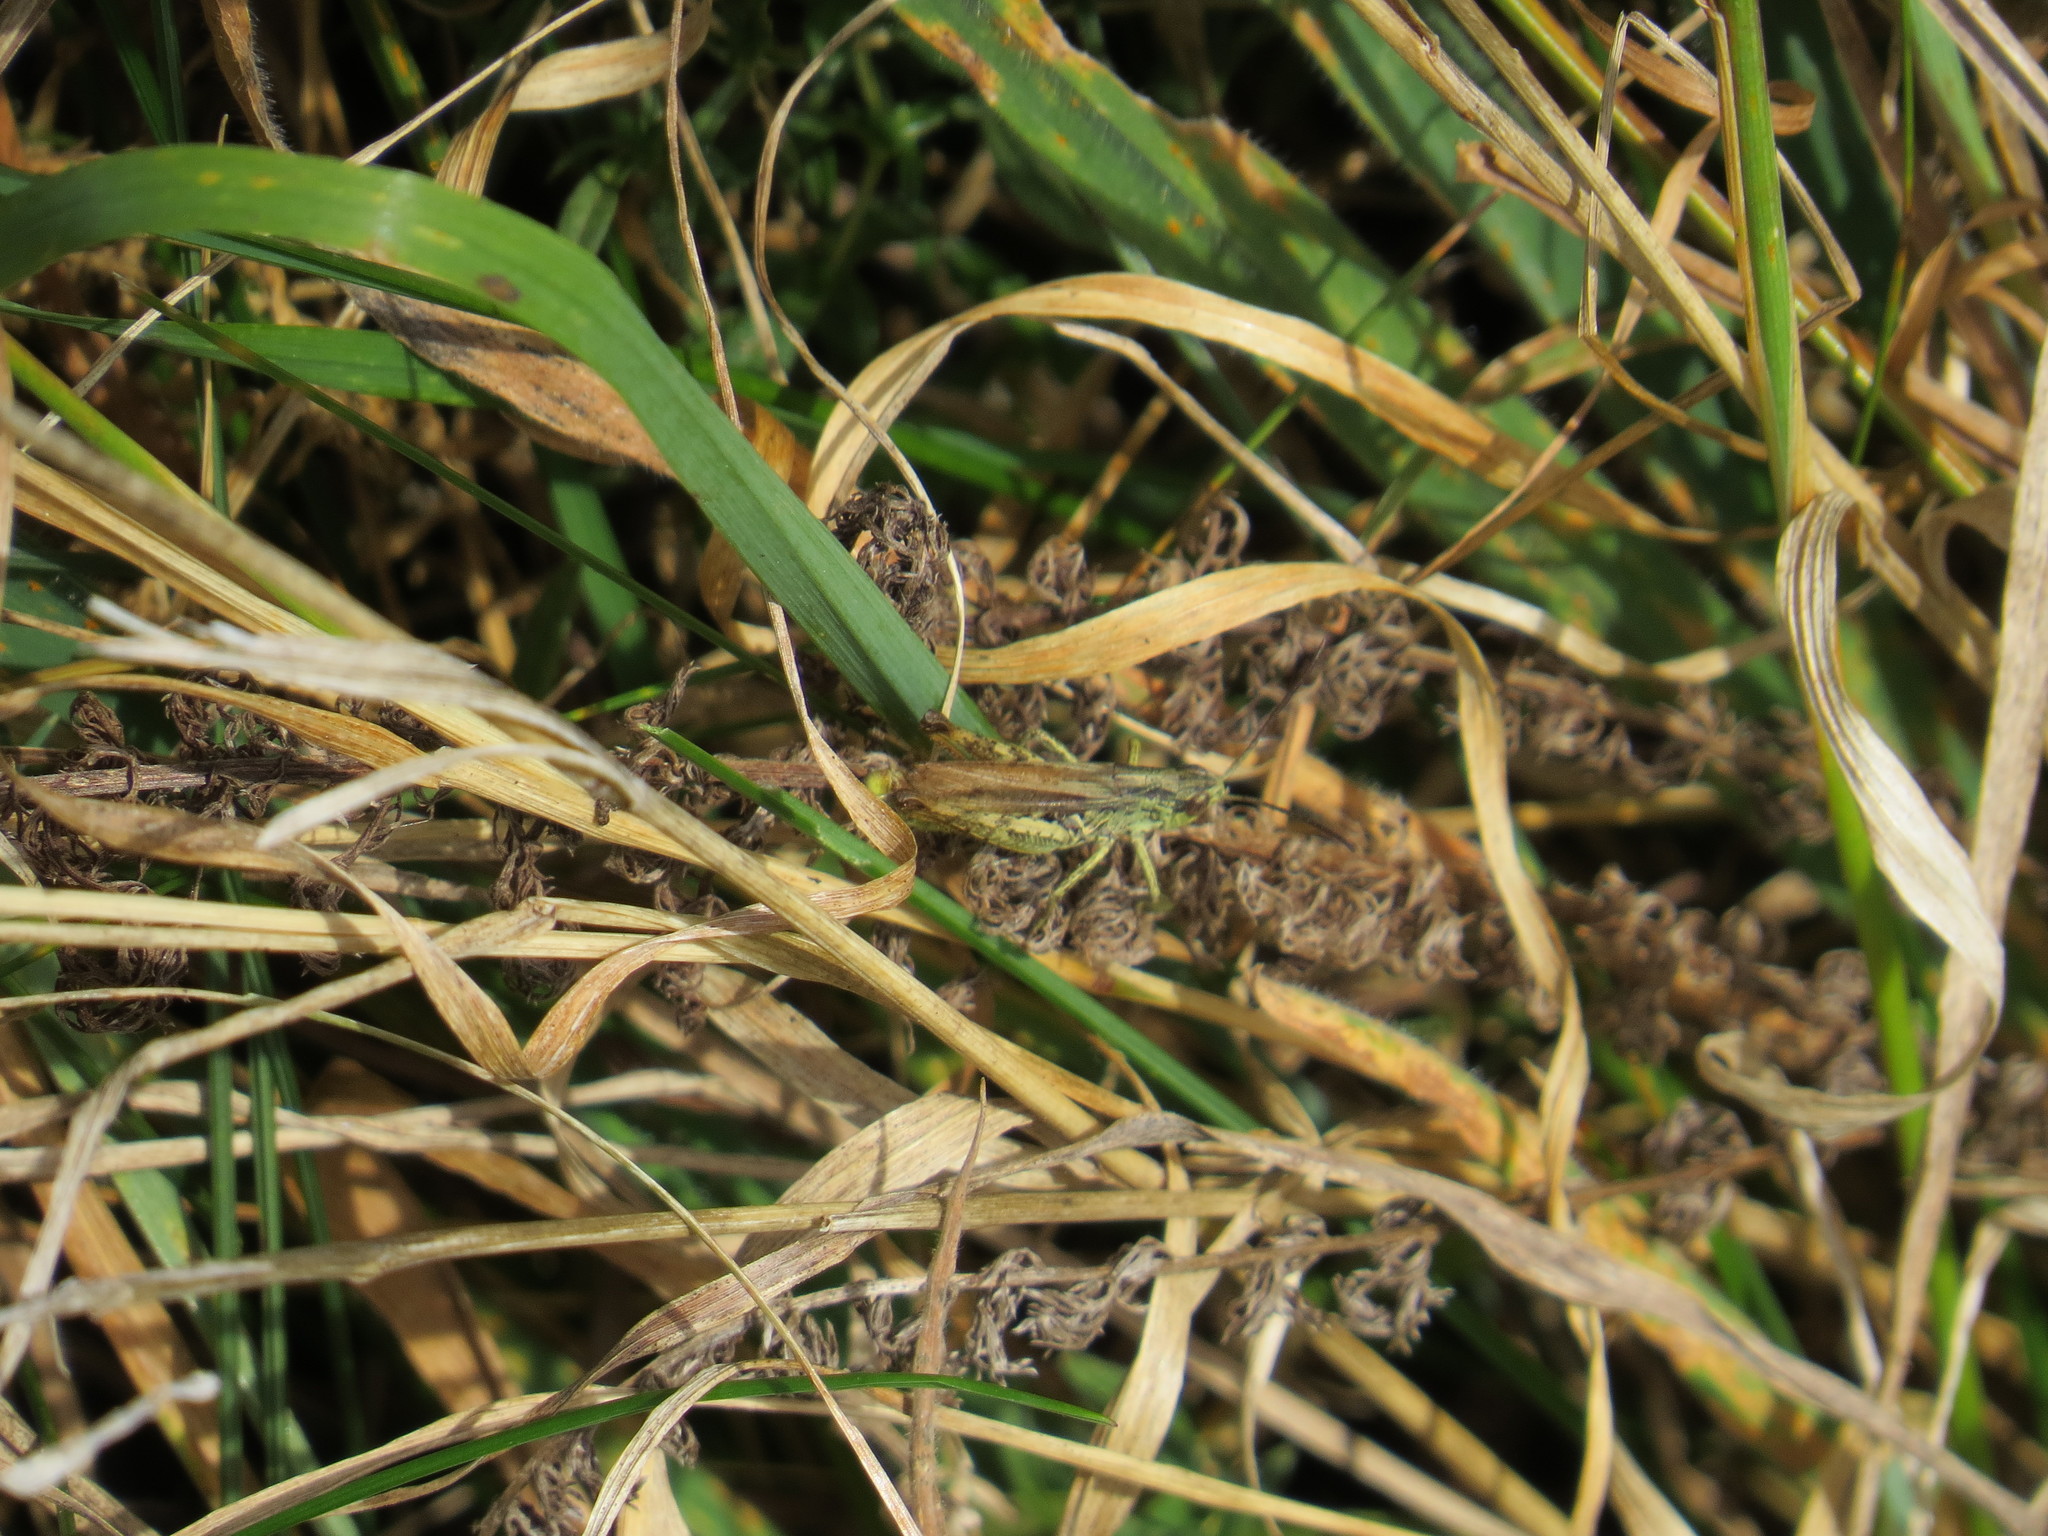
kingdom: Animalia
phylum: Arthropoda
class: Insecta
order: Orthoptera
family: Acrididae
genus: Chorthippus
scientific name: Chorthippus apricarius
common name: Upland field grasshopper
